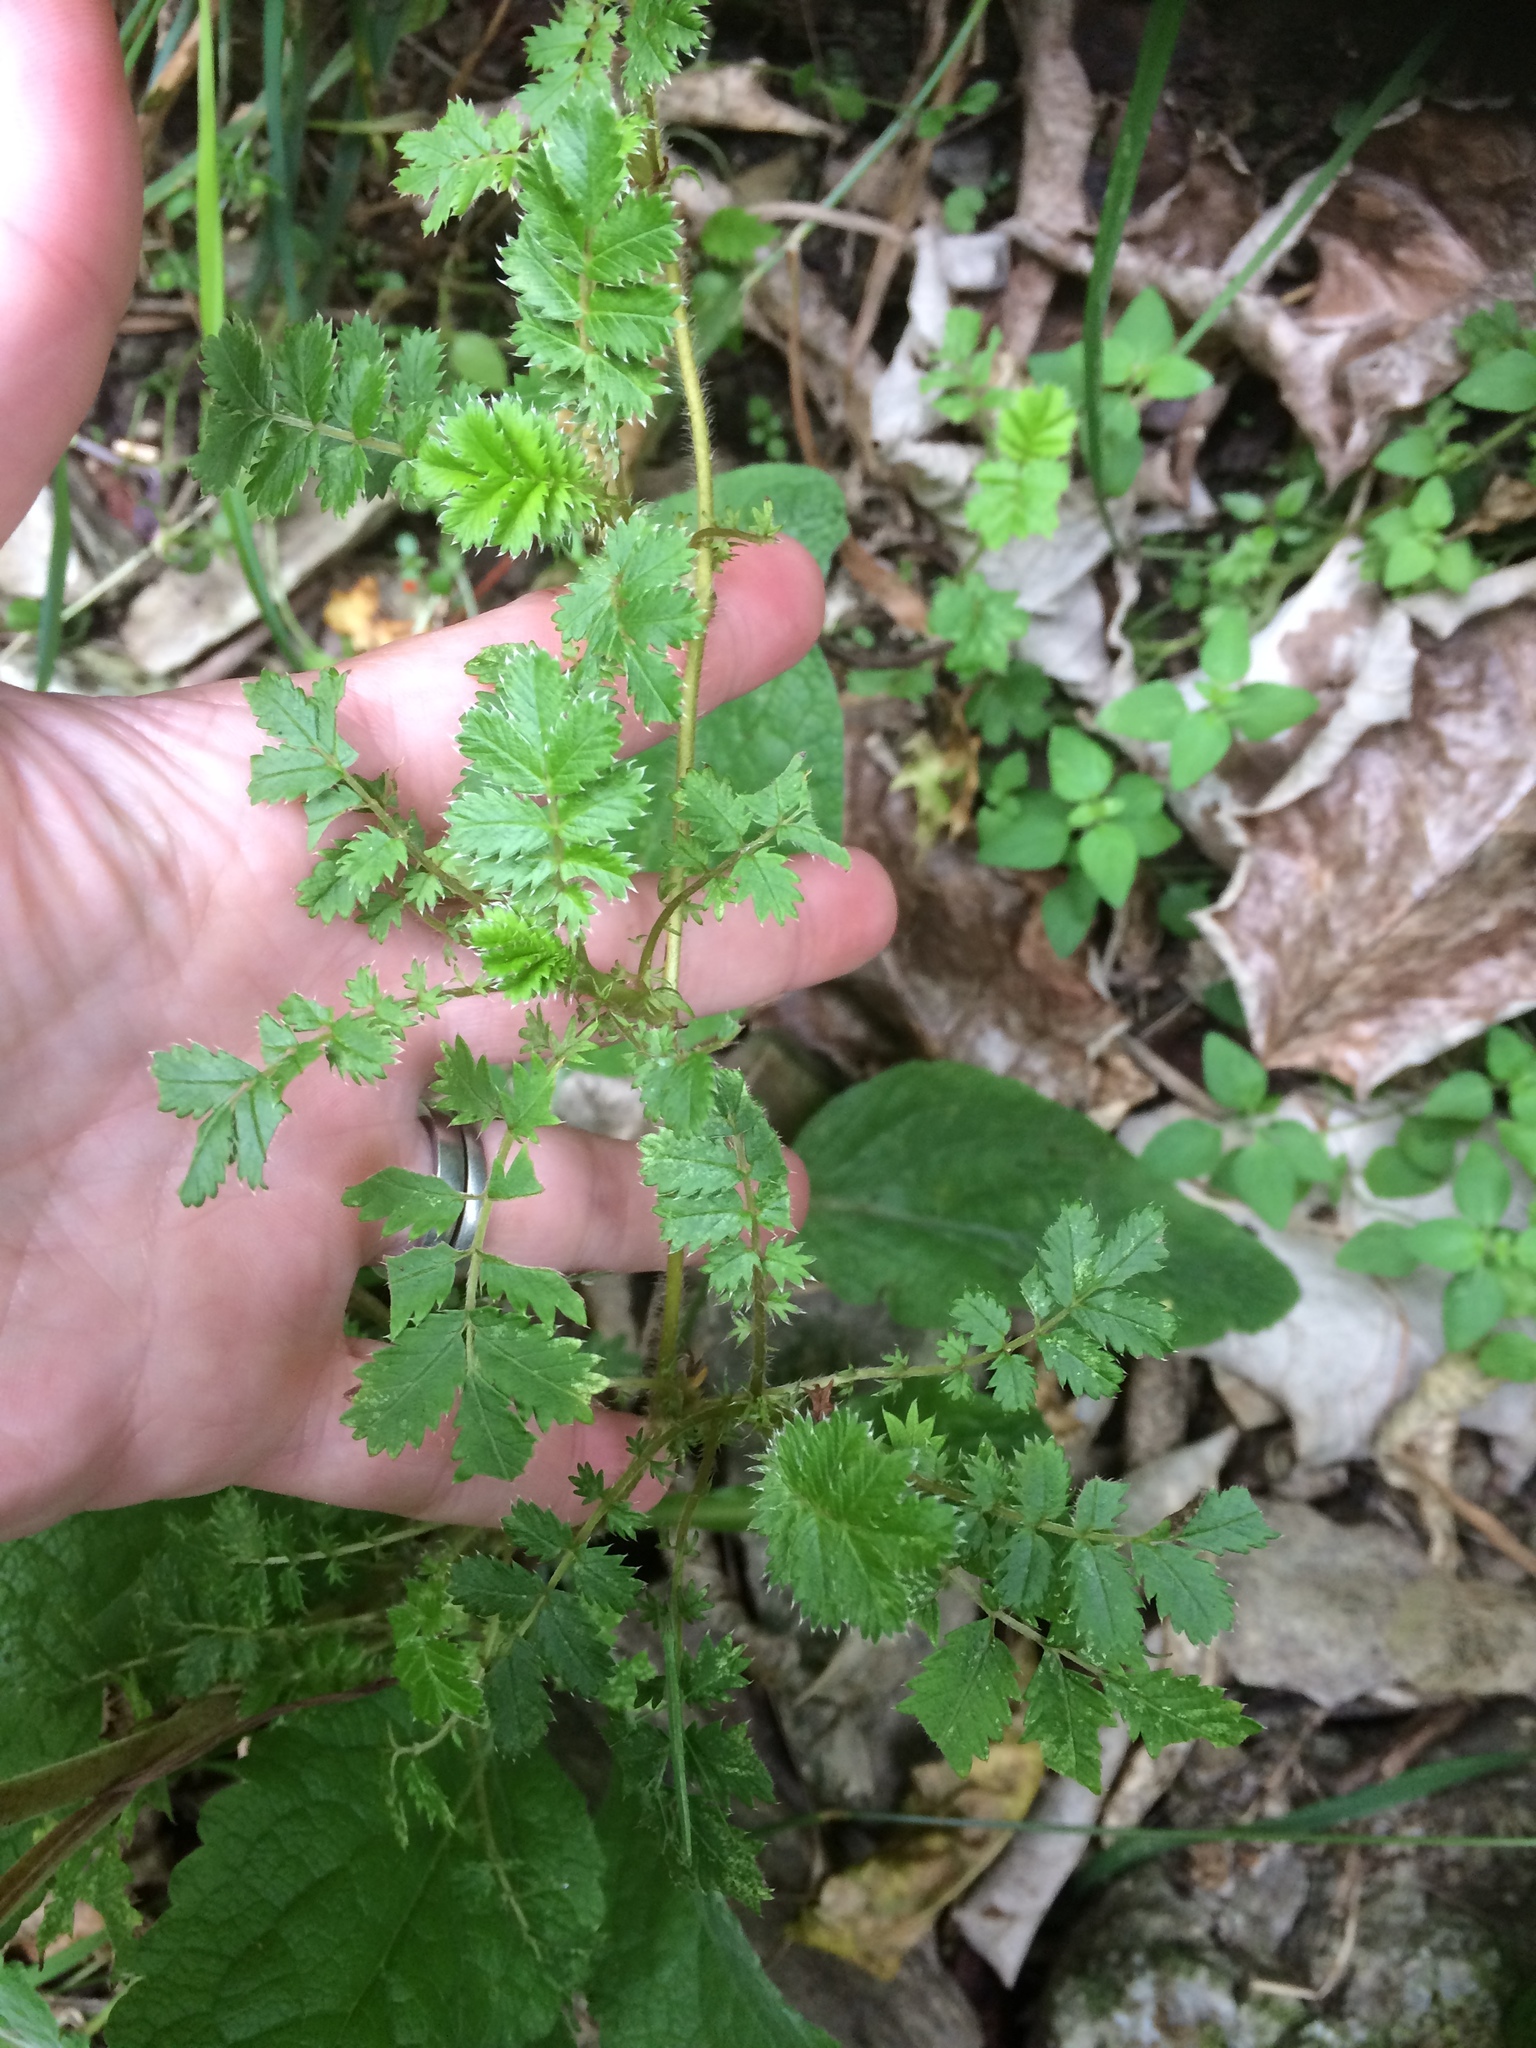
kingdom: Plantae
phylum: Tracheophyta
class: Magnoliopsida
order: Rosales
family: Rosaceae
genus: Acaena
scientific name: Acaena anserinifolia
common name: Bronze pirri-pirri-bur
